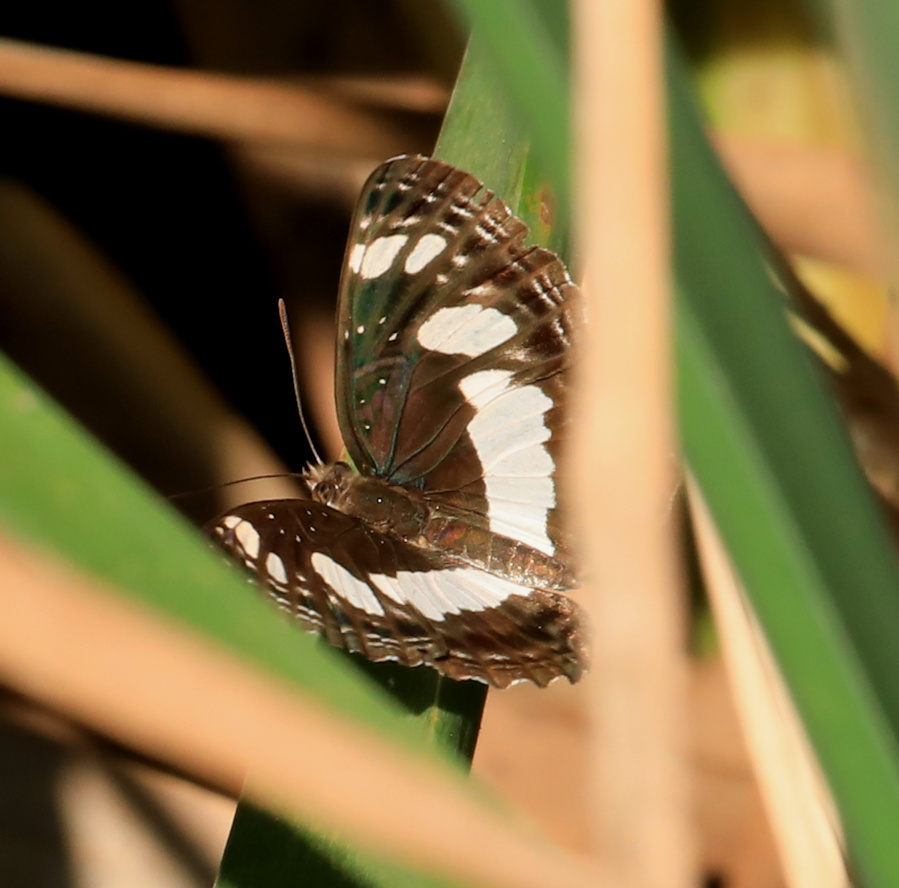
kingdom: Animalia
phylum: Arthropoda
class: Insecta
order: Lepidoptera
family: Nymphalidae
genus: Neptis
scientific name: Neptis saclava
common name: Small spotted sailor
